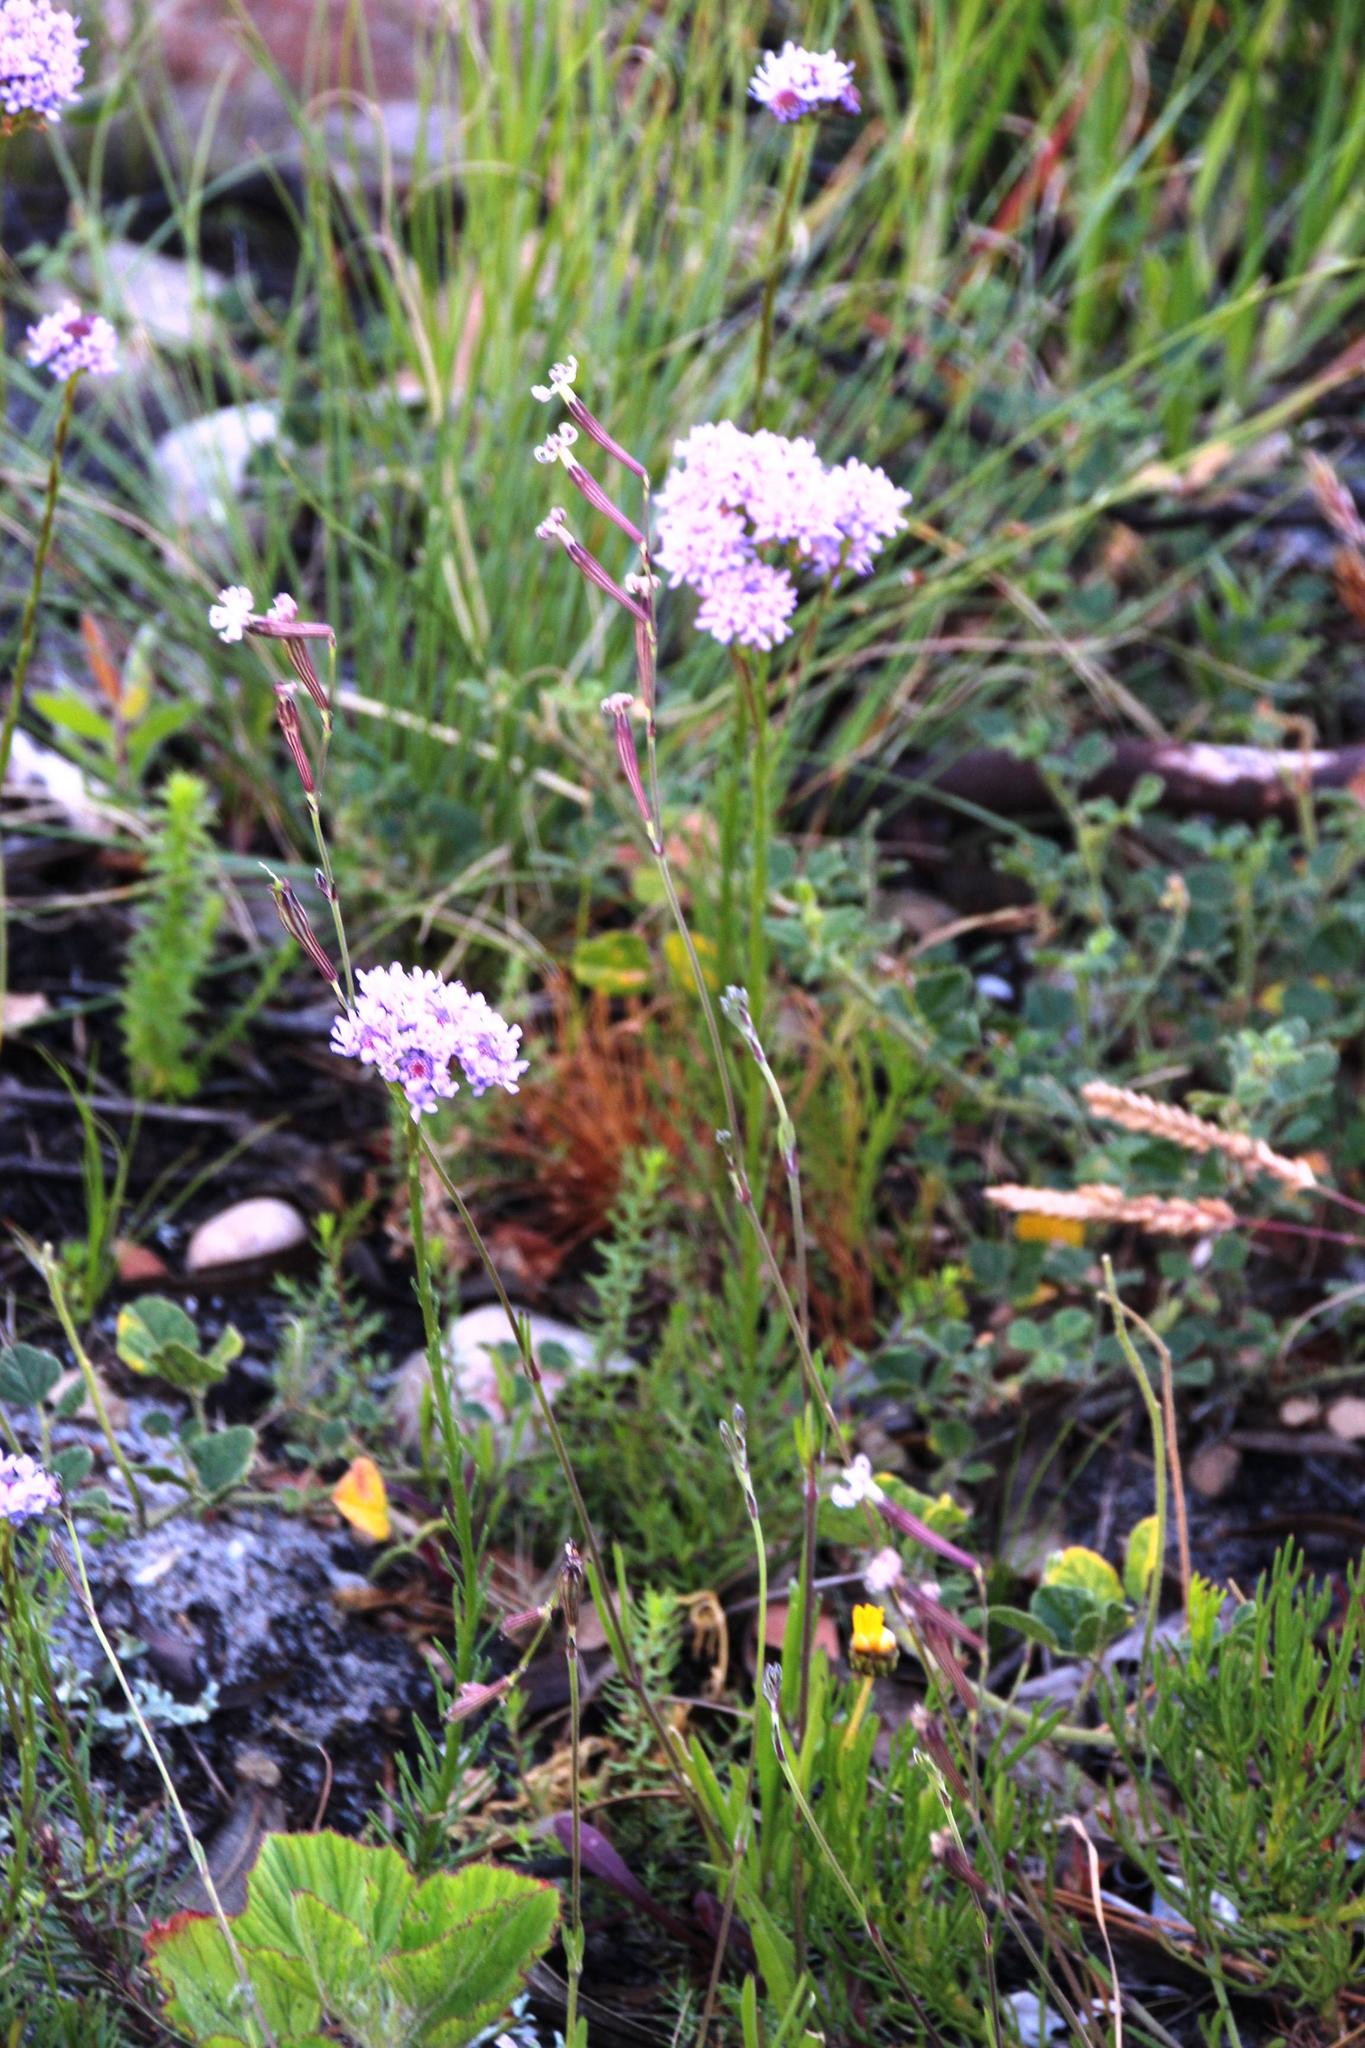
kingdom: Plantae
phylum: Tracheophyta
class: Magnoliopsida
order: Caryophyllales
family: Caryophyllaceae
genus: Silene
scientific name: Silene burchellii
